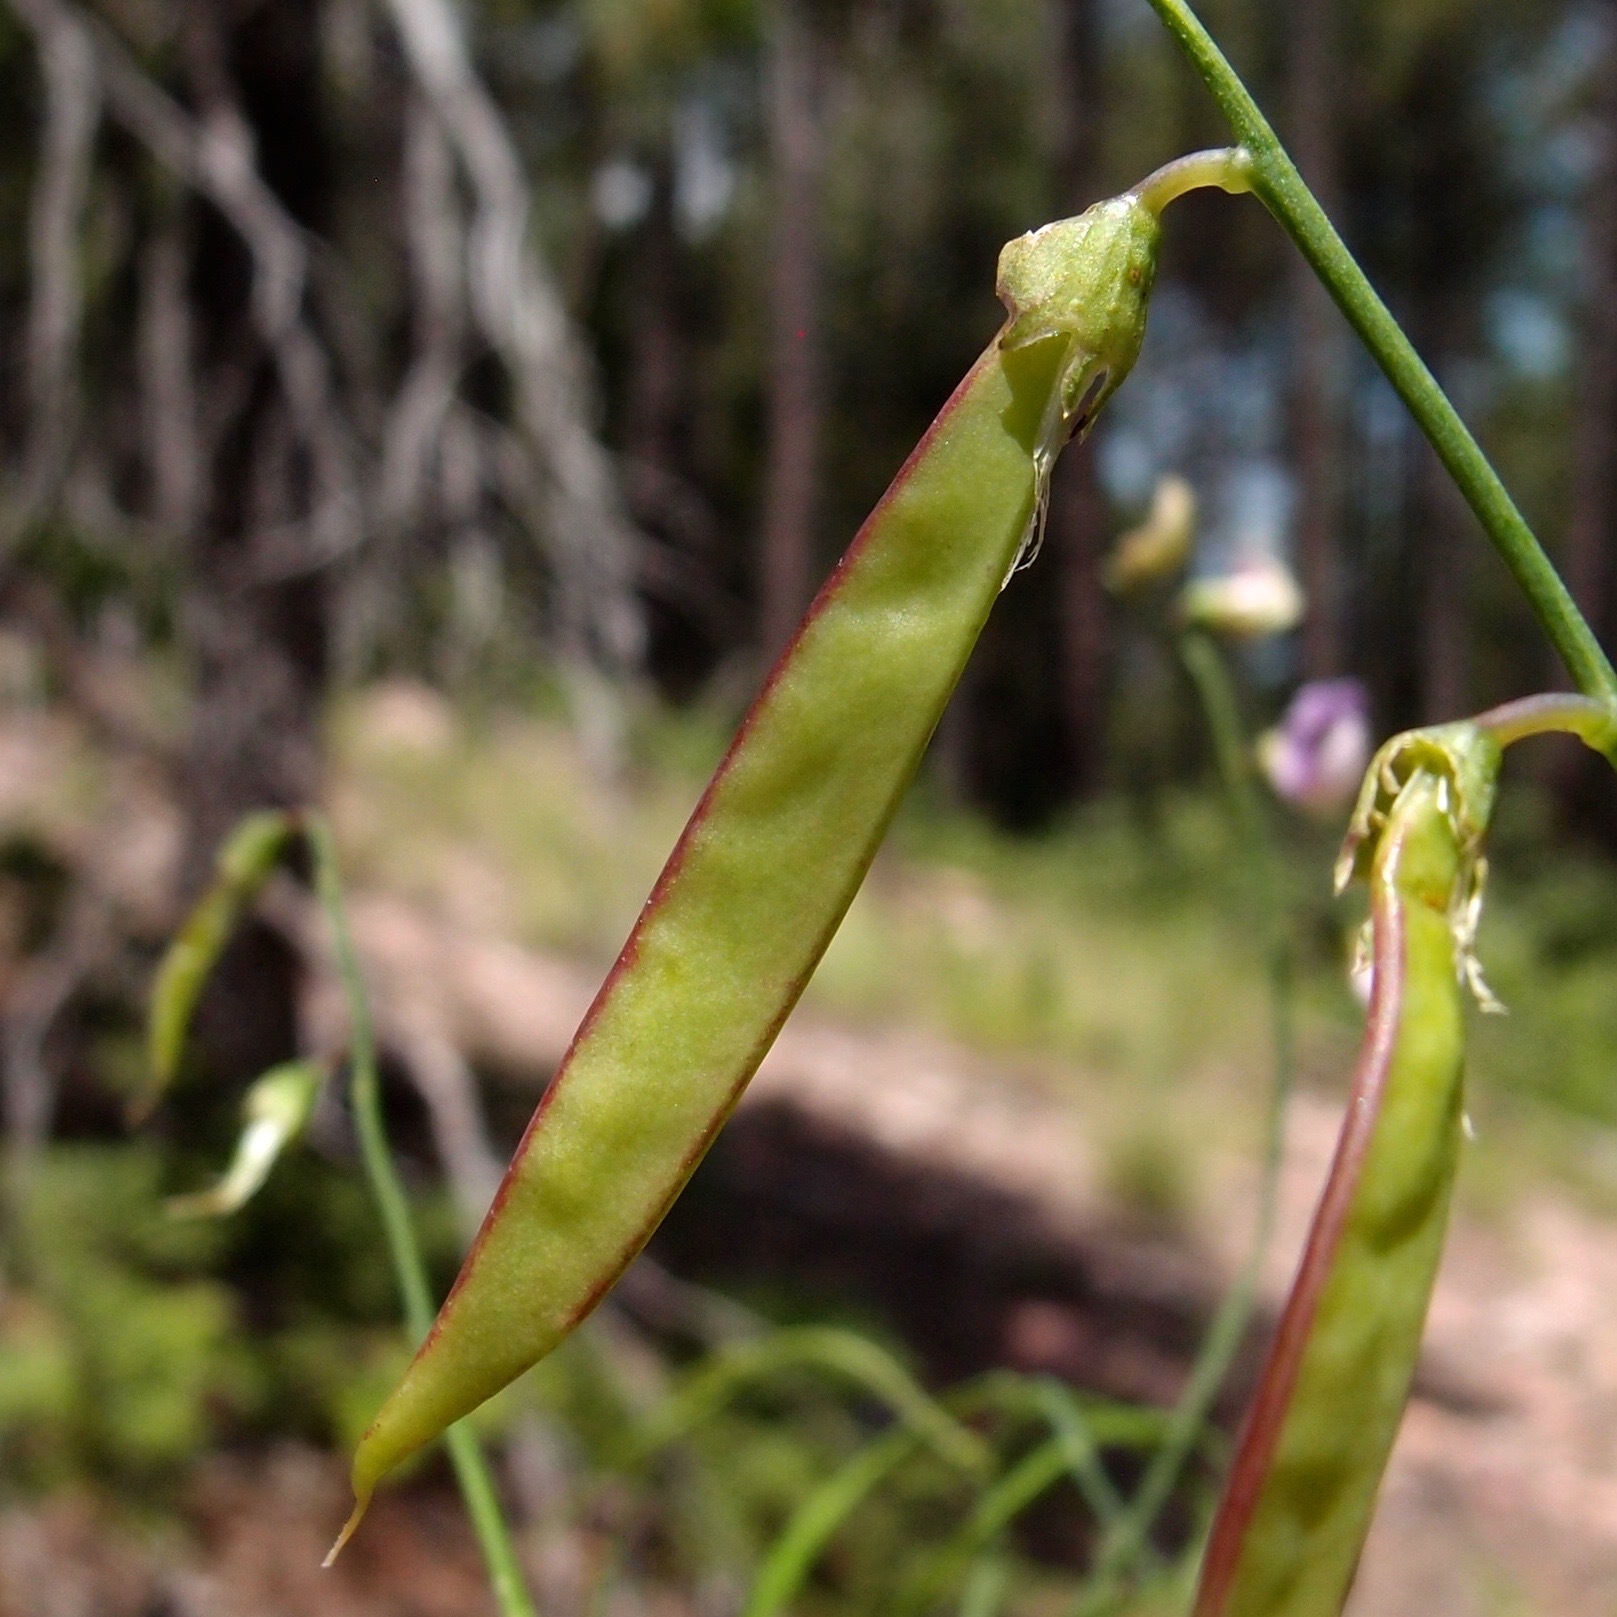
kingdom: Plantae
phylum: Tracheophyta
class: Magnoliopsida
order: Fabales
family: Fabaceae
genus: Lathyrus
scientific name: Lathyrus graminifolius
